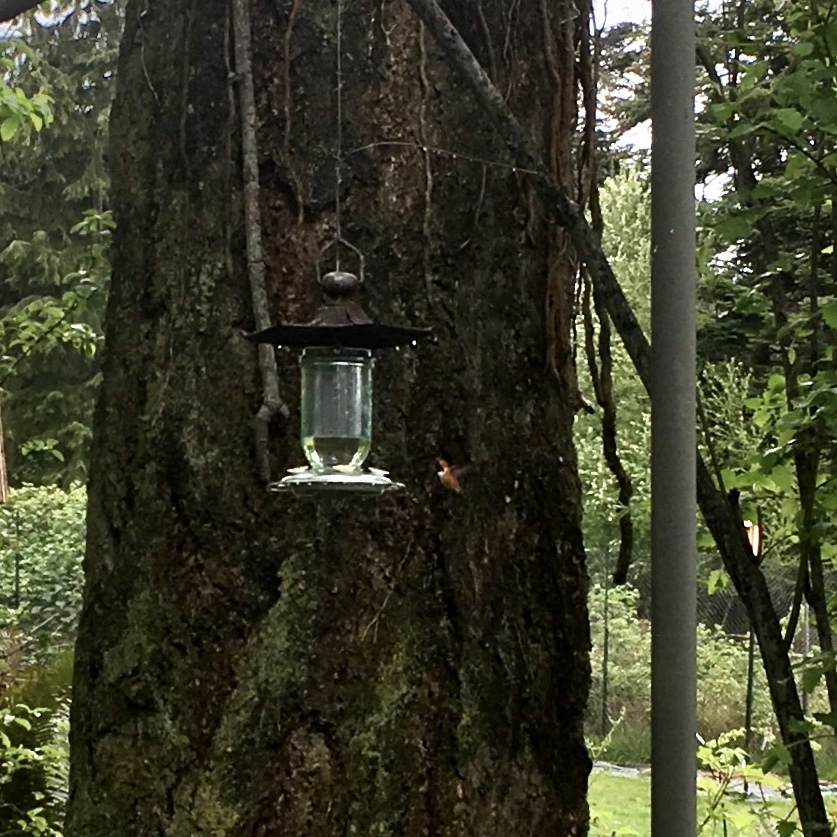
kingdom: Animalia
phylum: Chordata
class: Aves
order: Apodiformes
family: Trochilidae
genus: Selasphorus
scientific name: Selasphorus rufus
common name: Rufous hummingbird
